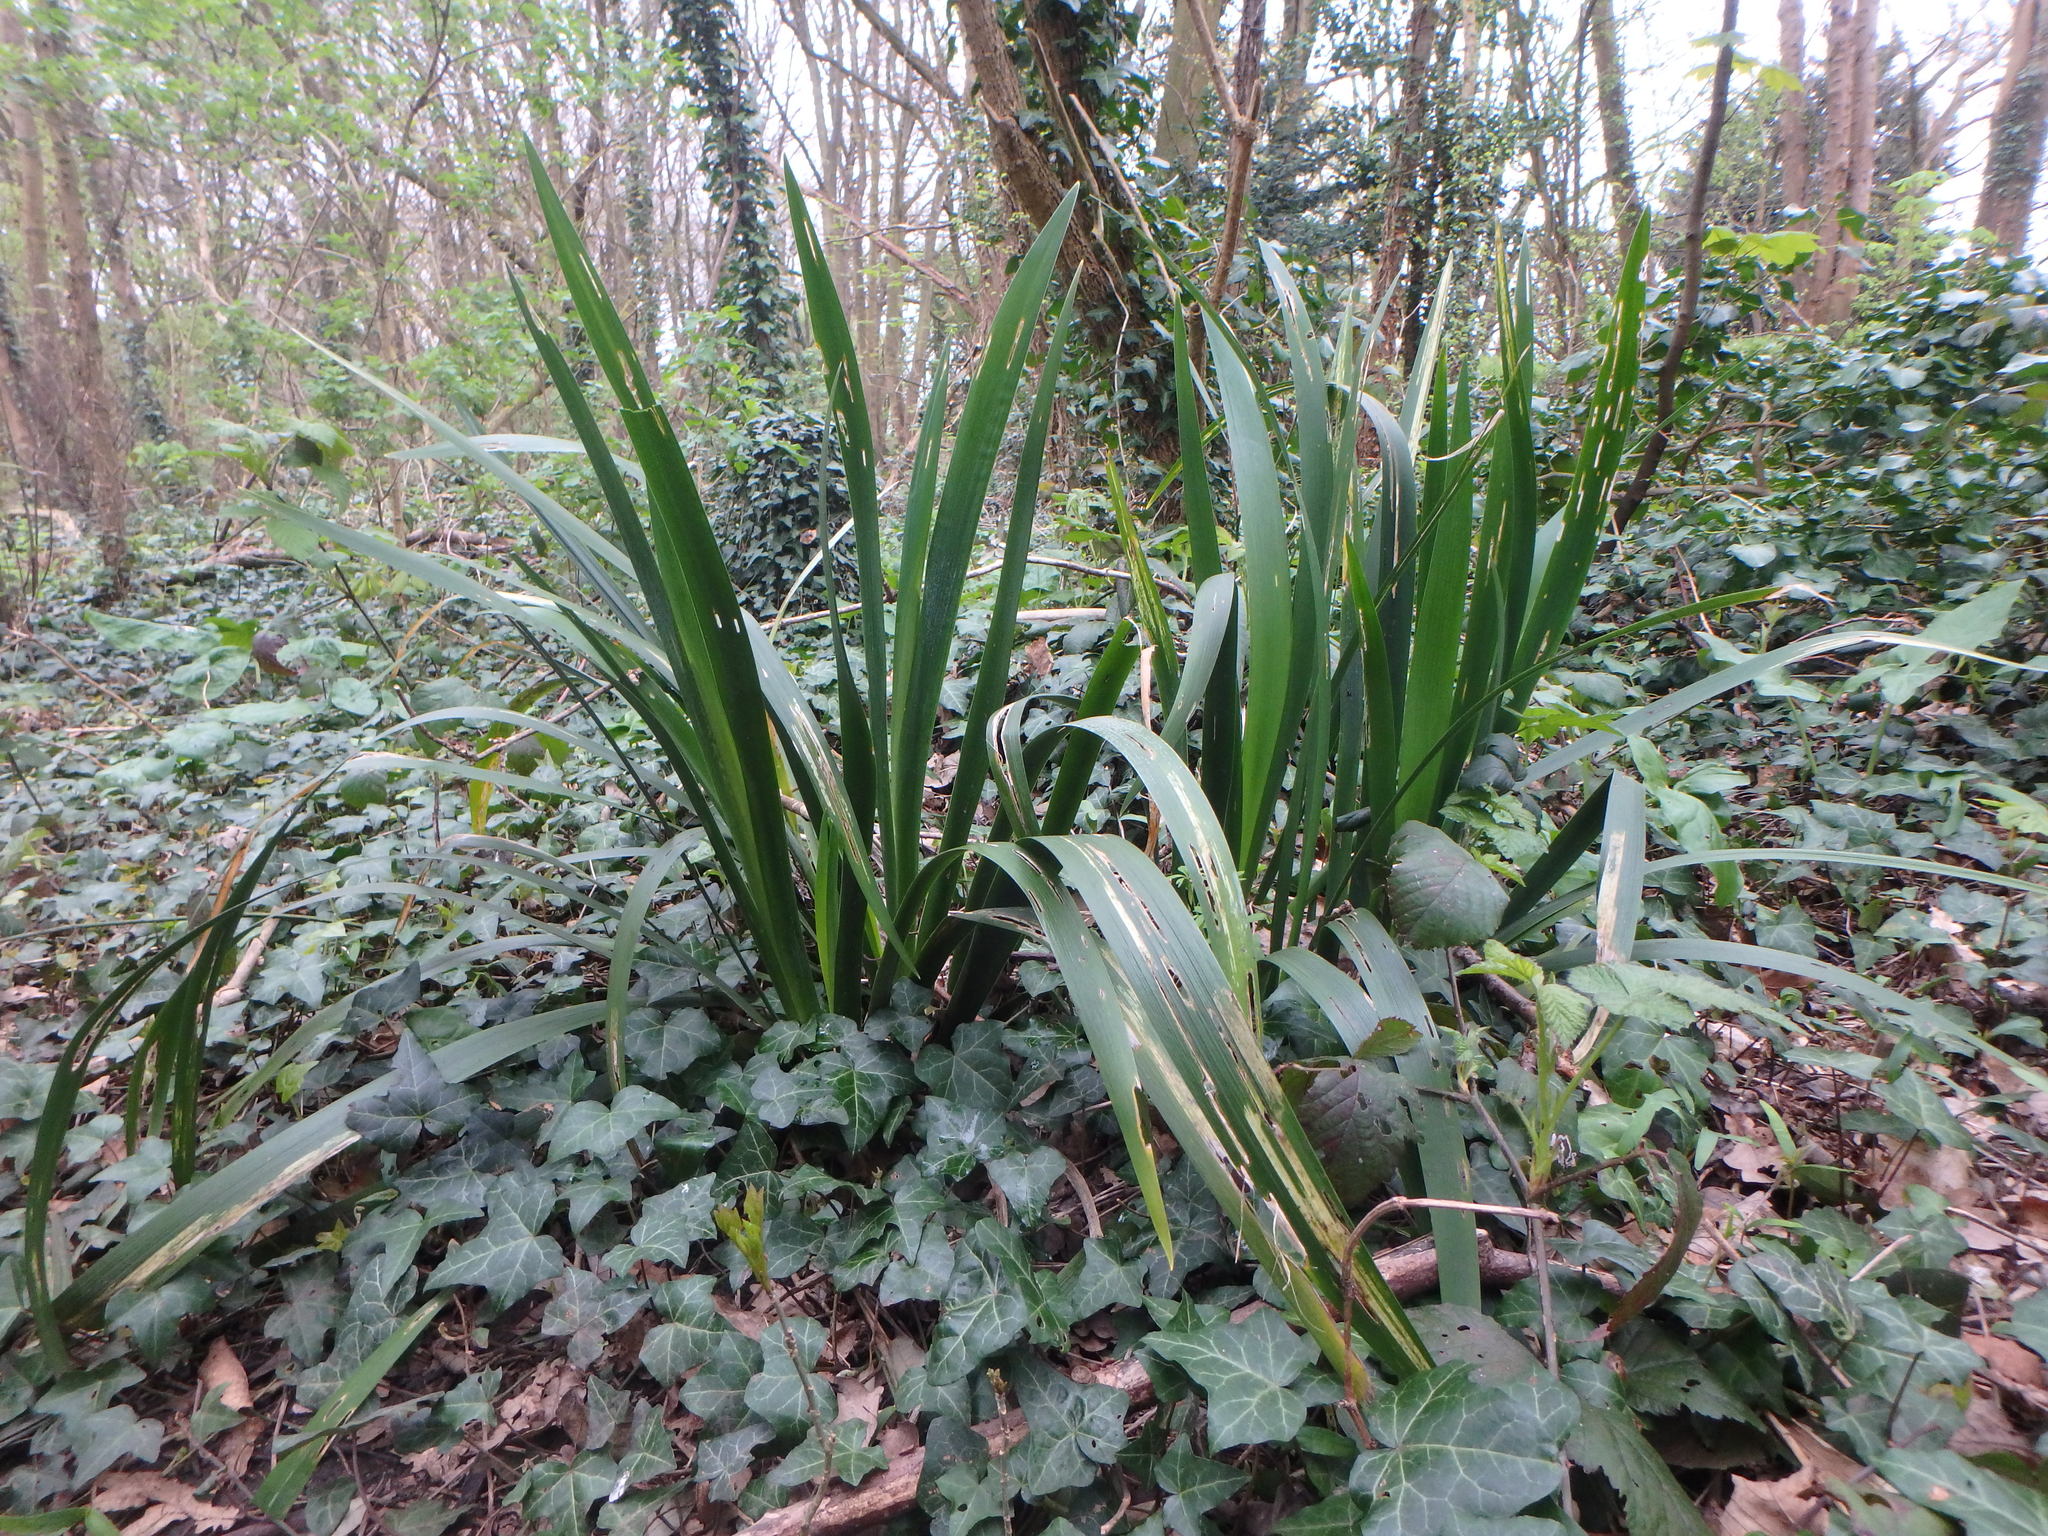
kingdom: Plantae
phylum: Tracheophyta
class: Liliopsida
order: Asparagales
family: Iridaceae
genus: Iris
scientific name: Iris foetidissima
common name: Stinking iris
